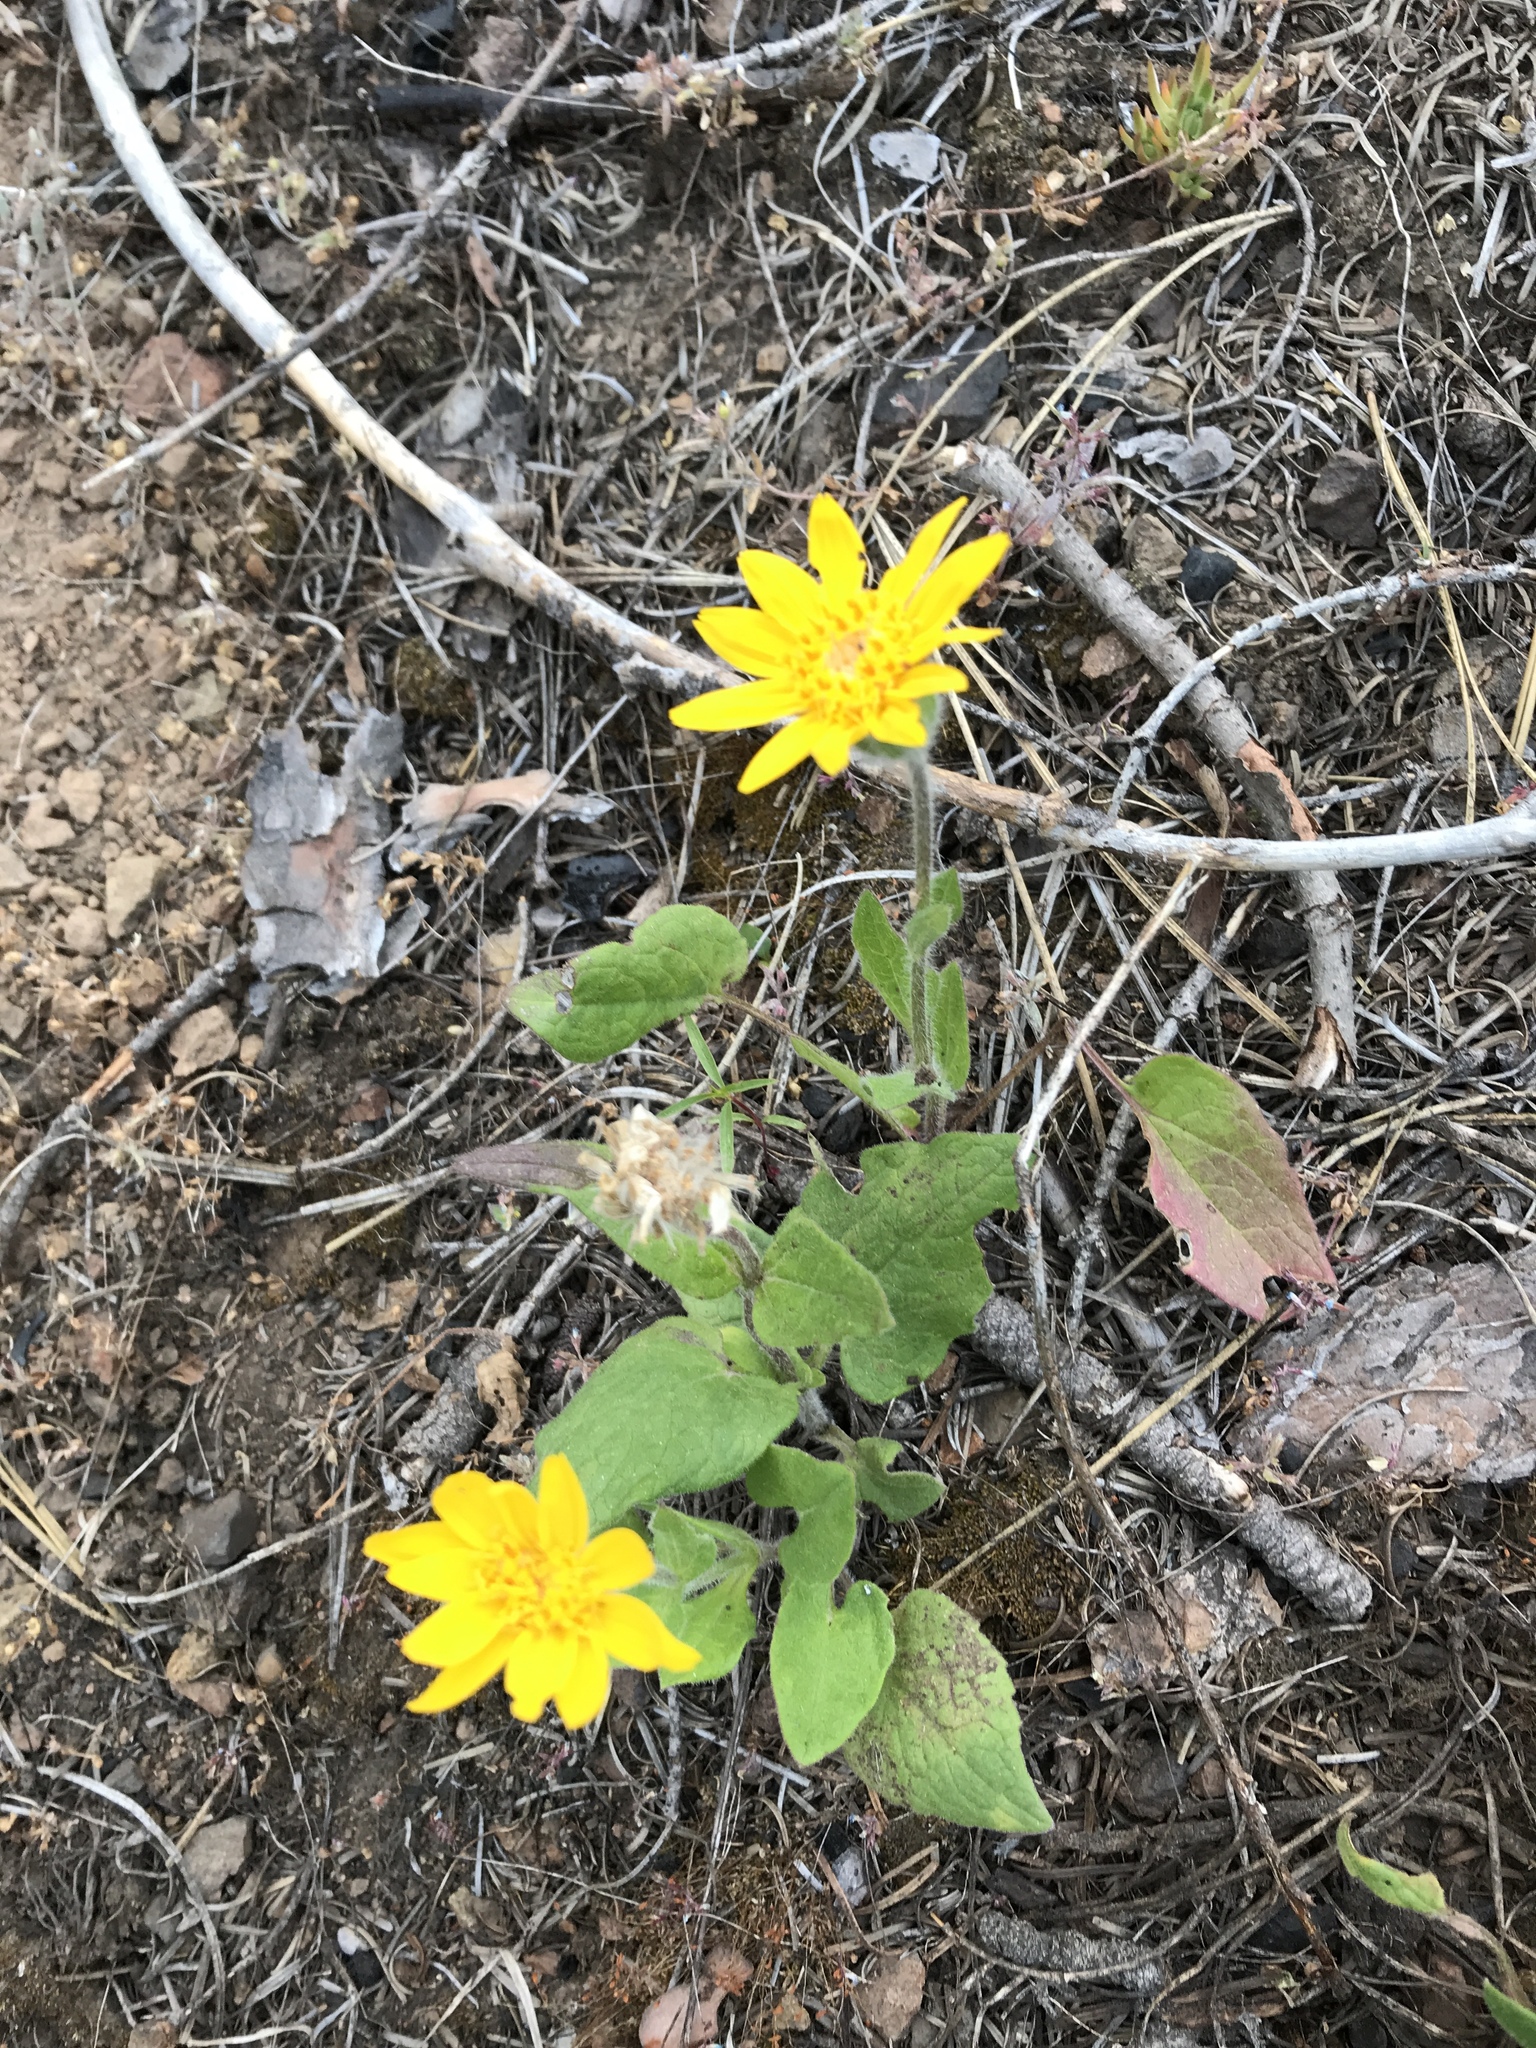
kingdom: Plantae
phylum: Tracheophyta
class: Magnoliopsida
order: Asterales
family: Asteraceae
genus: Arnica
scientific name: Arnica cordifolia
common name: Heart-leaf arnica
